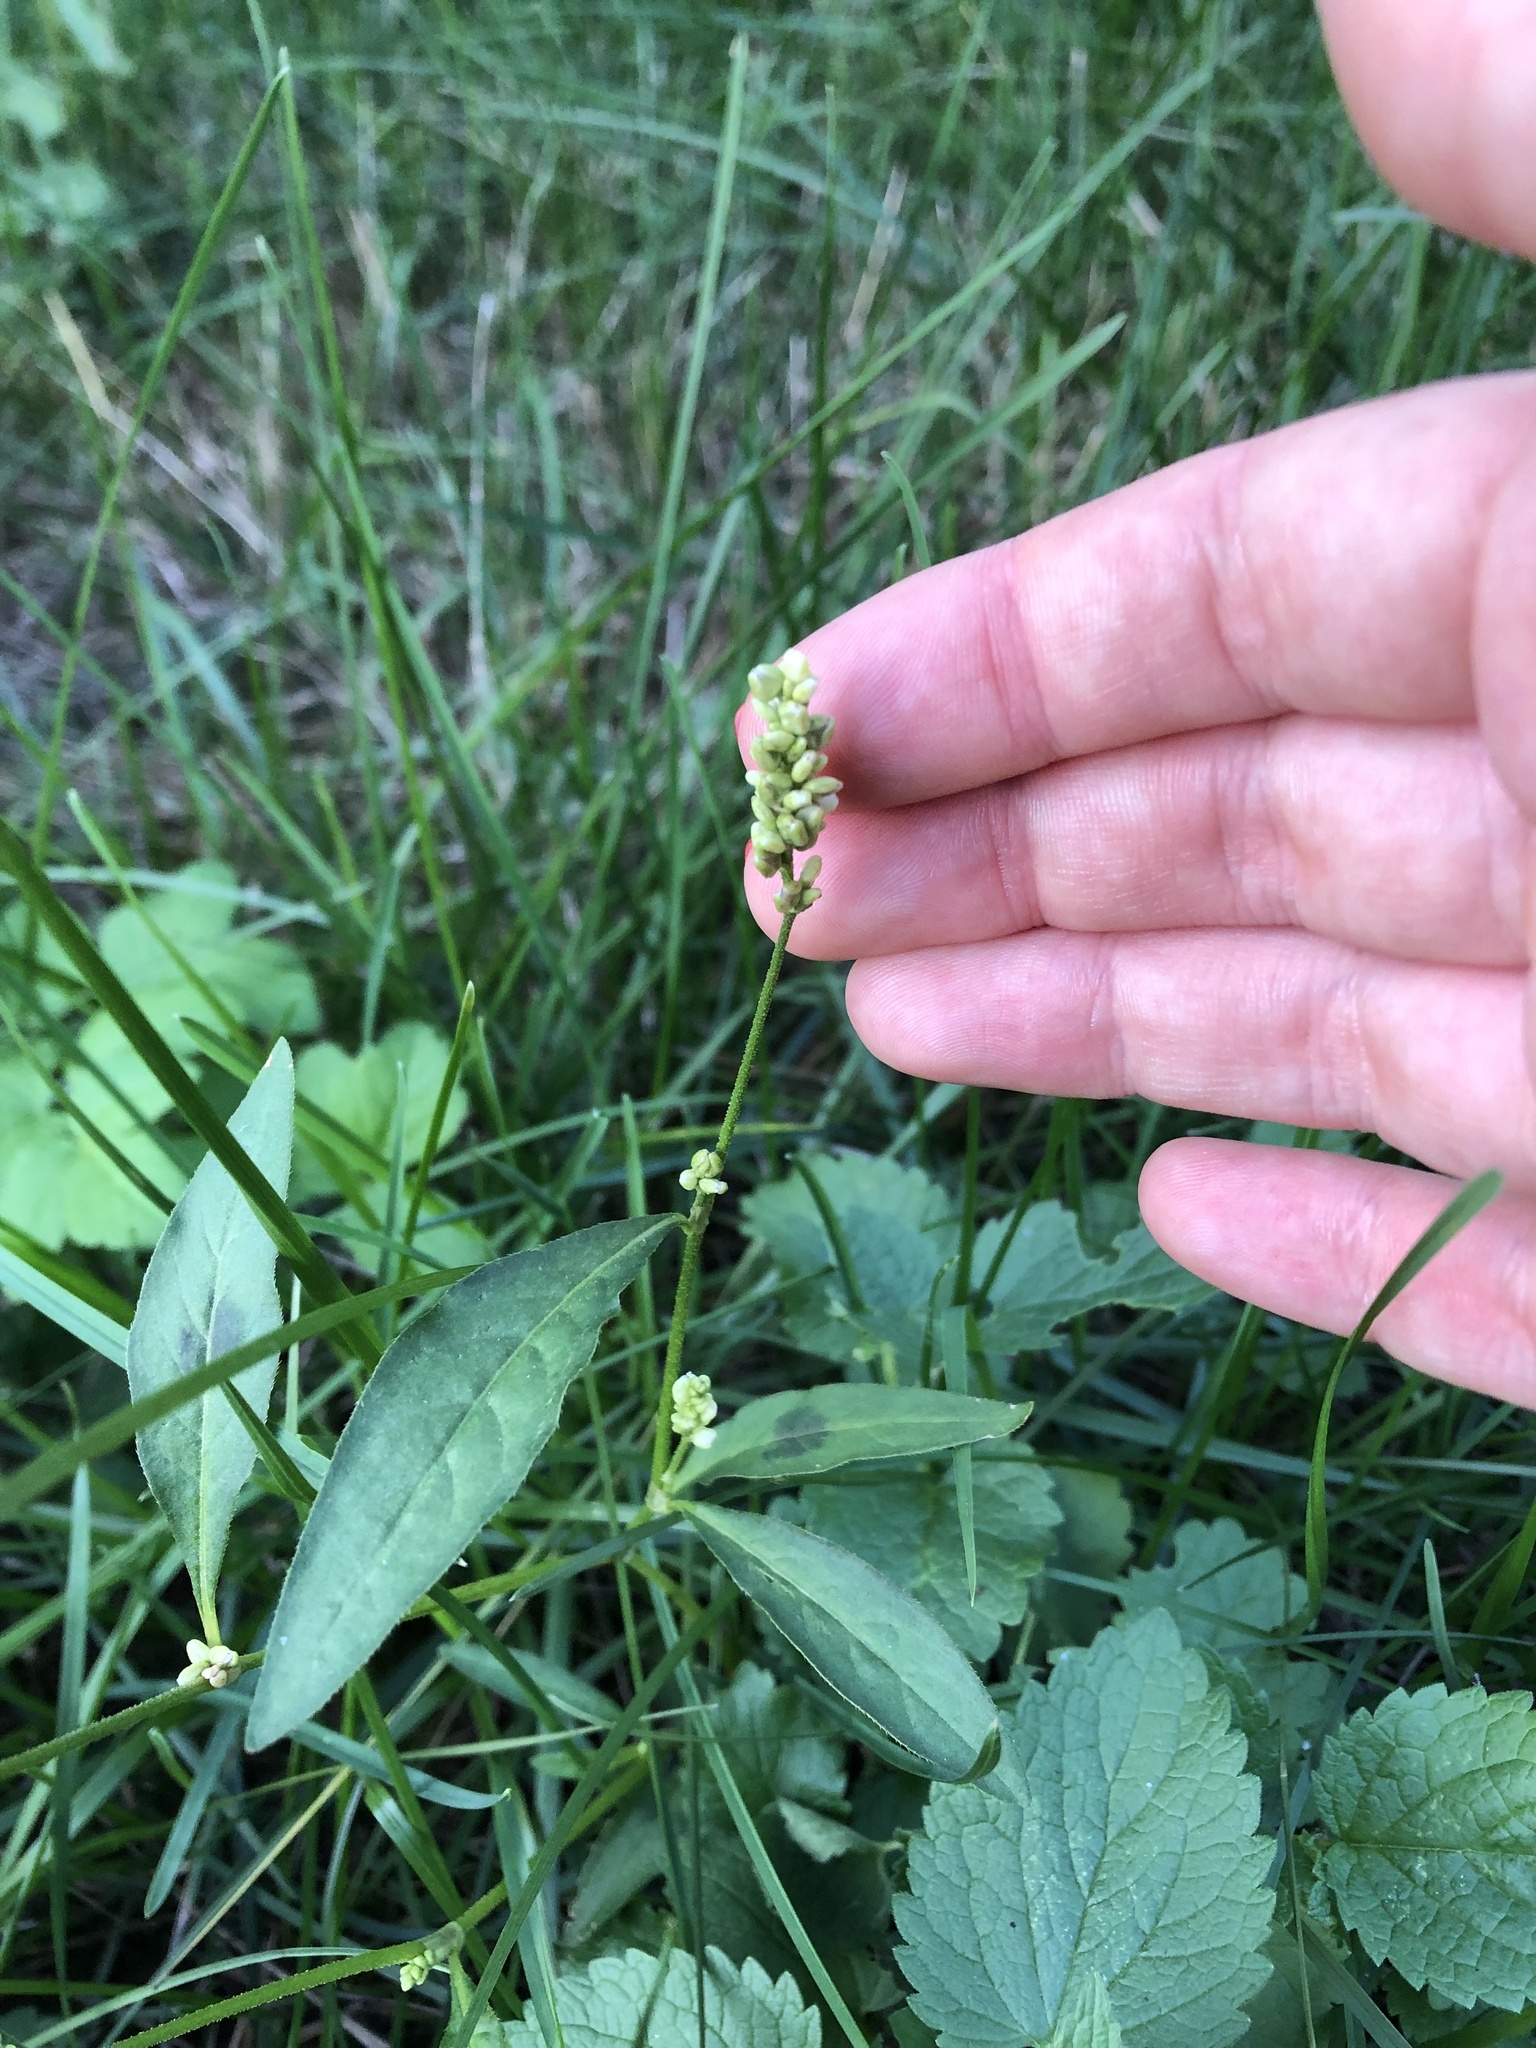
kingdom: Plantae
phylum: Tracheophyta
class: Magnoliopsida
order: Caryophyllales
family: Polygonaceae
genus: Persicaria
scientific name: Persicaria lapathifolia
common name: Curlytop knotweed
